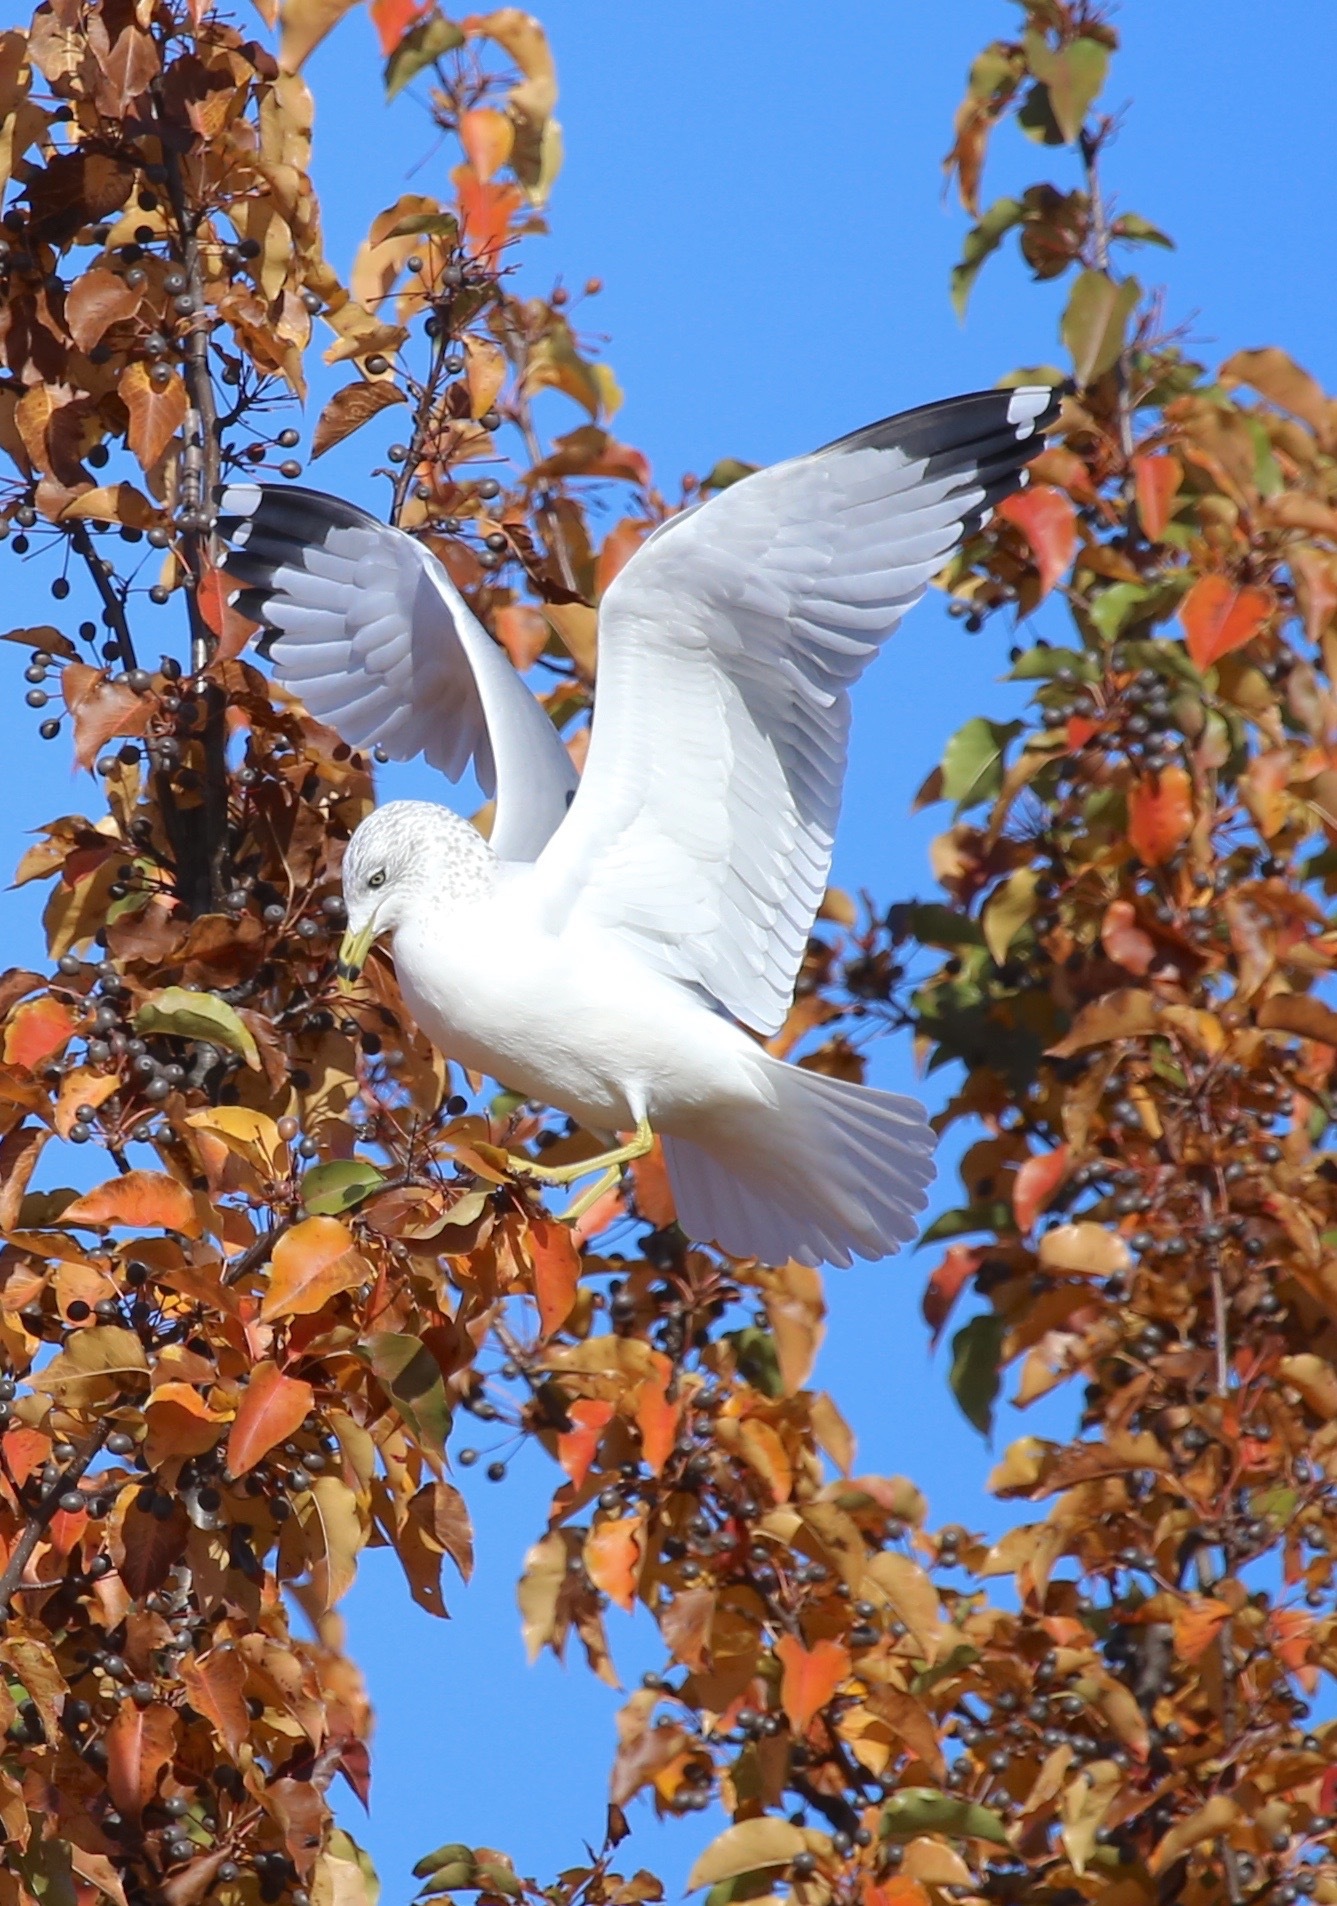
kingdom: Animalia
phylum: Chordata
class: Aves
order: Charadriiformes
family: Laridae
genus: Larus
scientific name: Larus delawarensis
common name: Ring-billed gull
